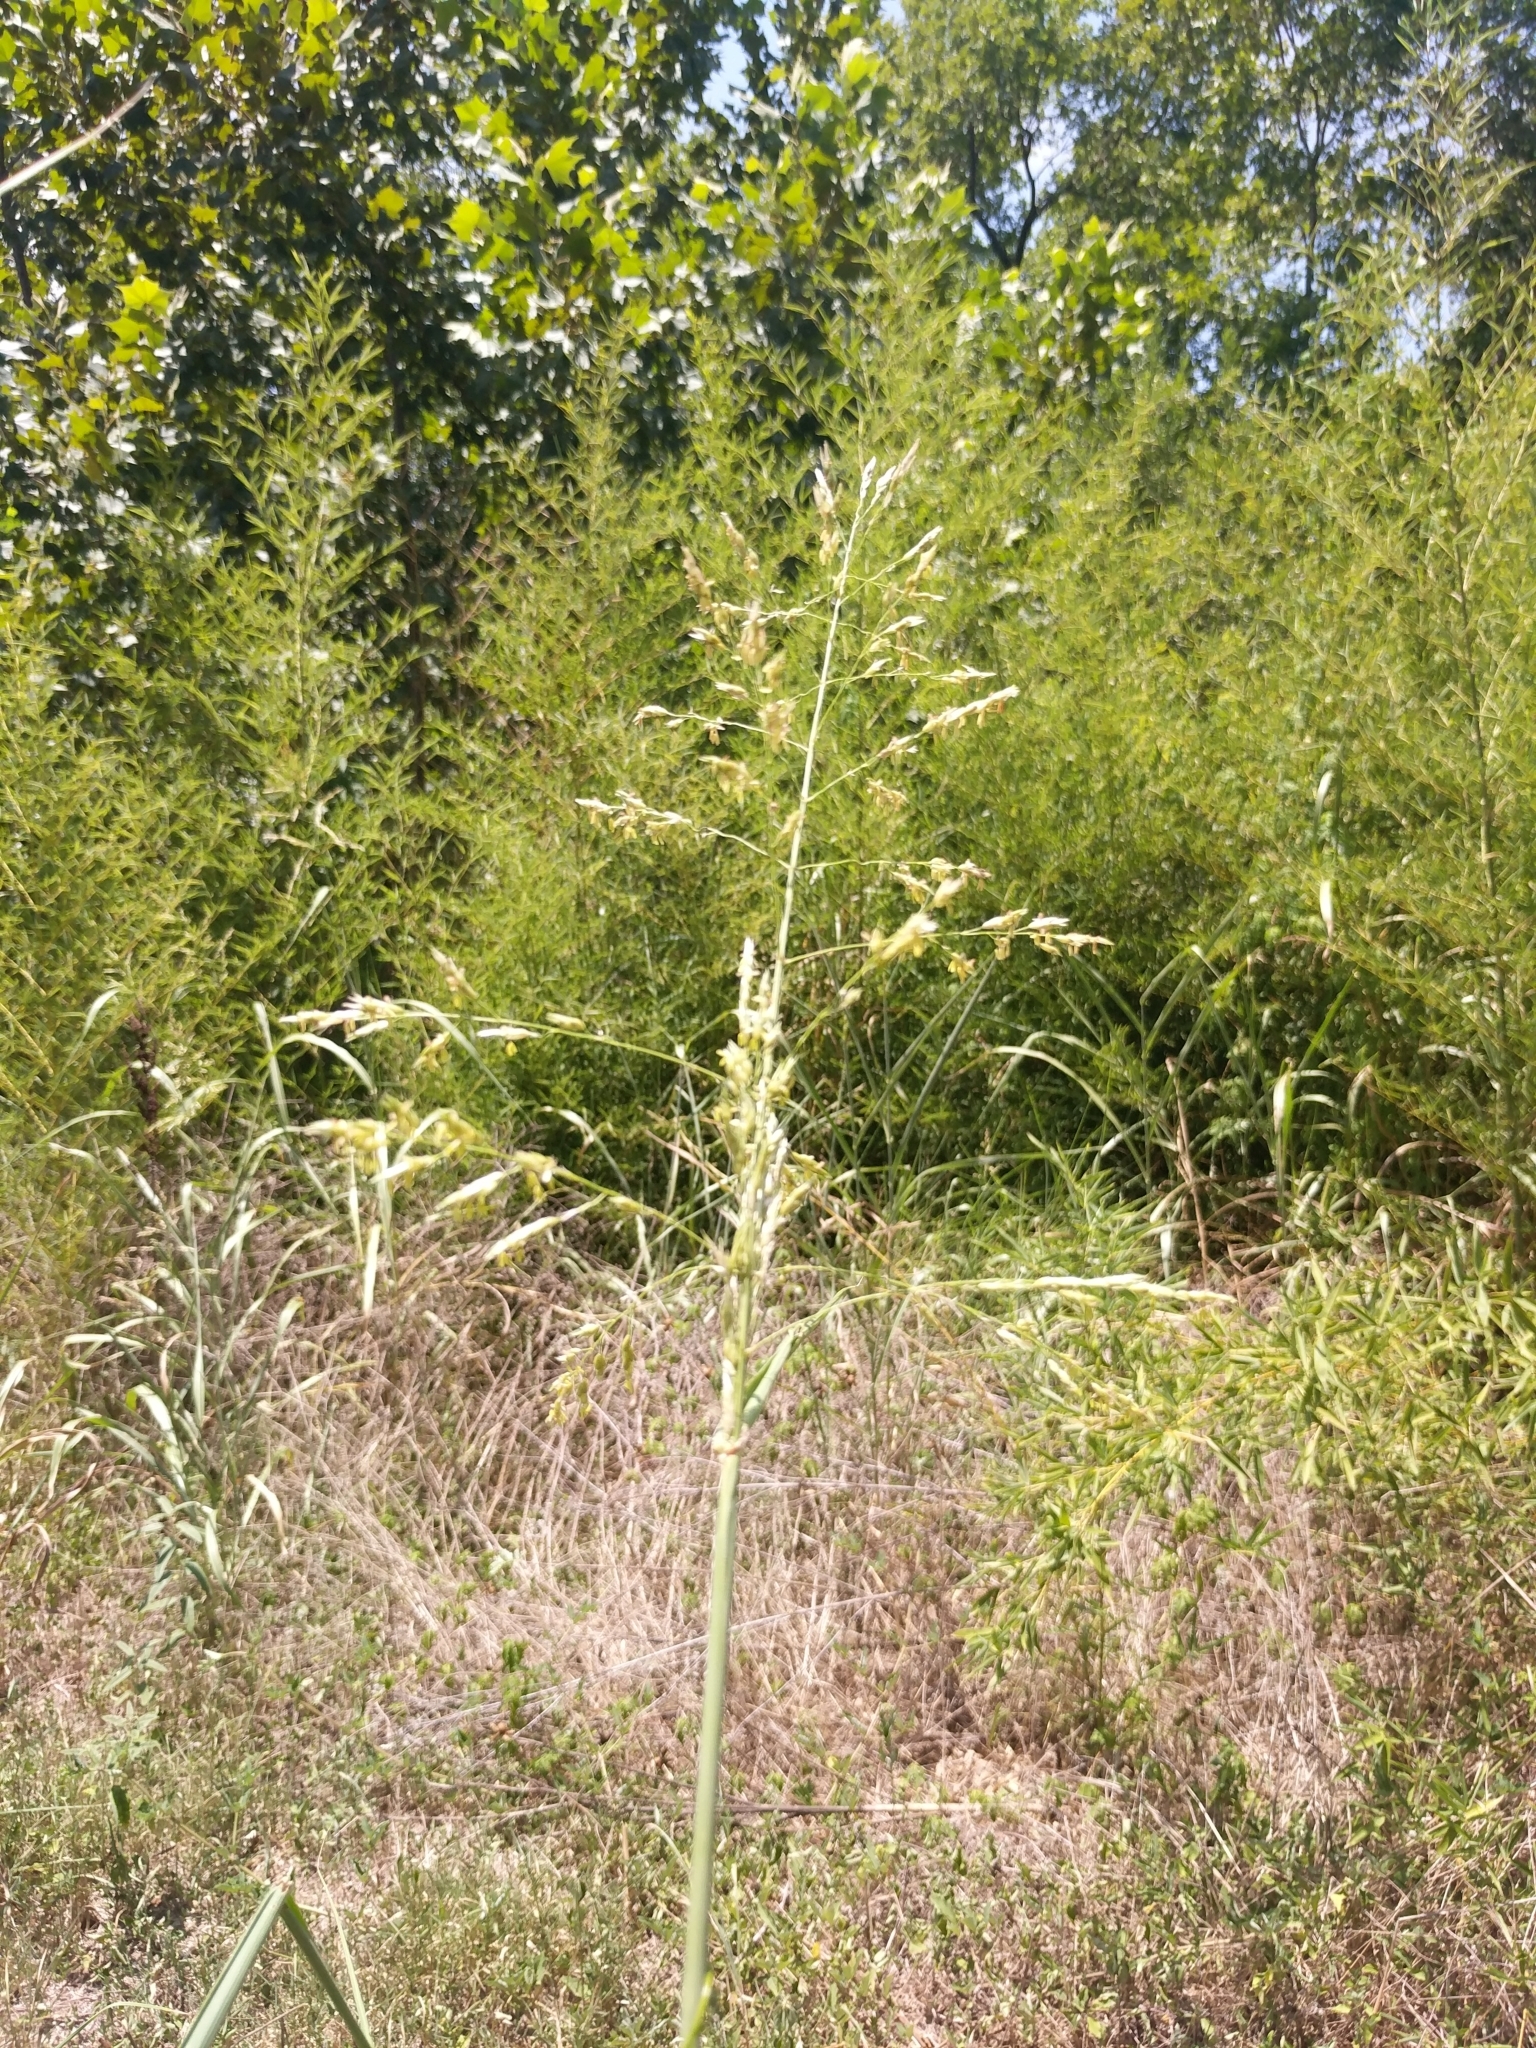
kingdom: Plantae
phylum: Tracheophyta
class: Liliopsida
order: Poales
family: Poaceae
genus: Sorghum
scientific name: Sorghum halepense
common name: Johnson-grass
